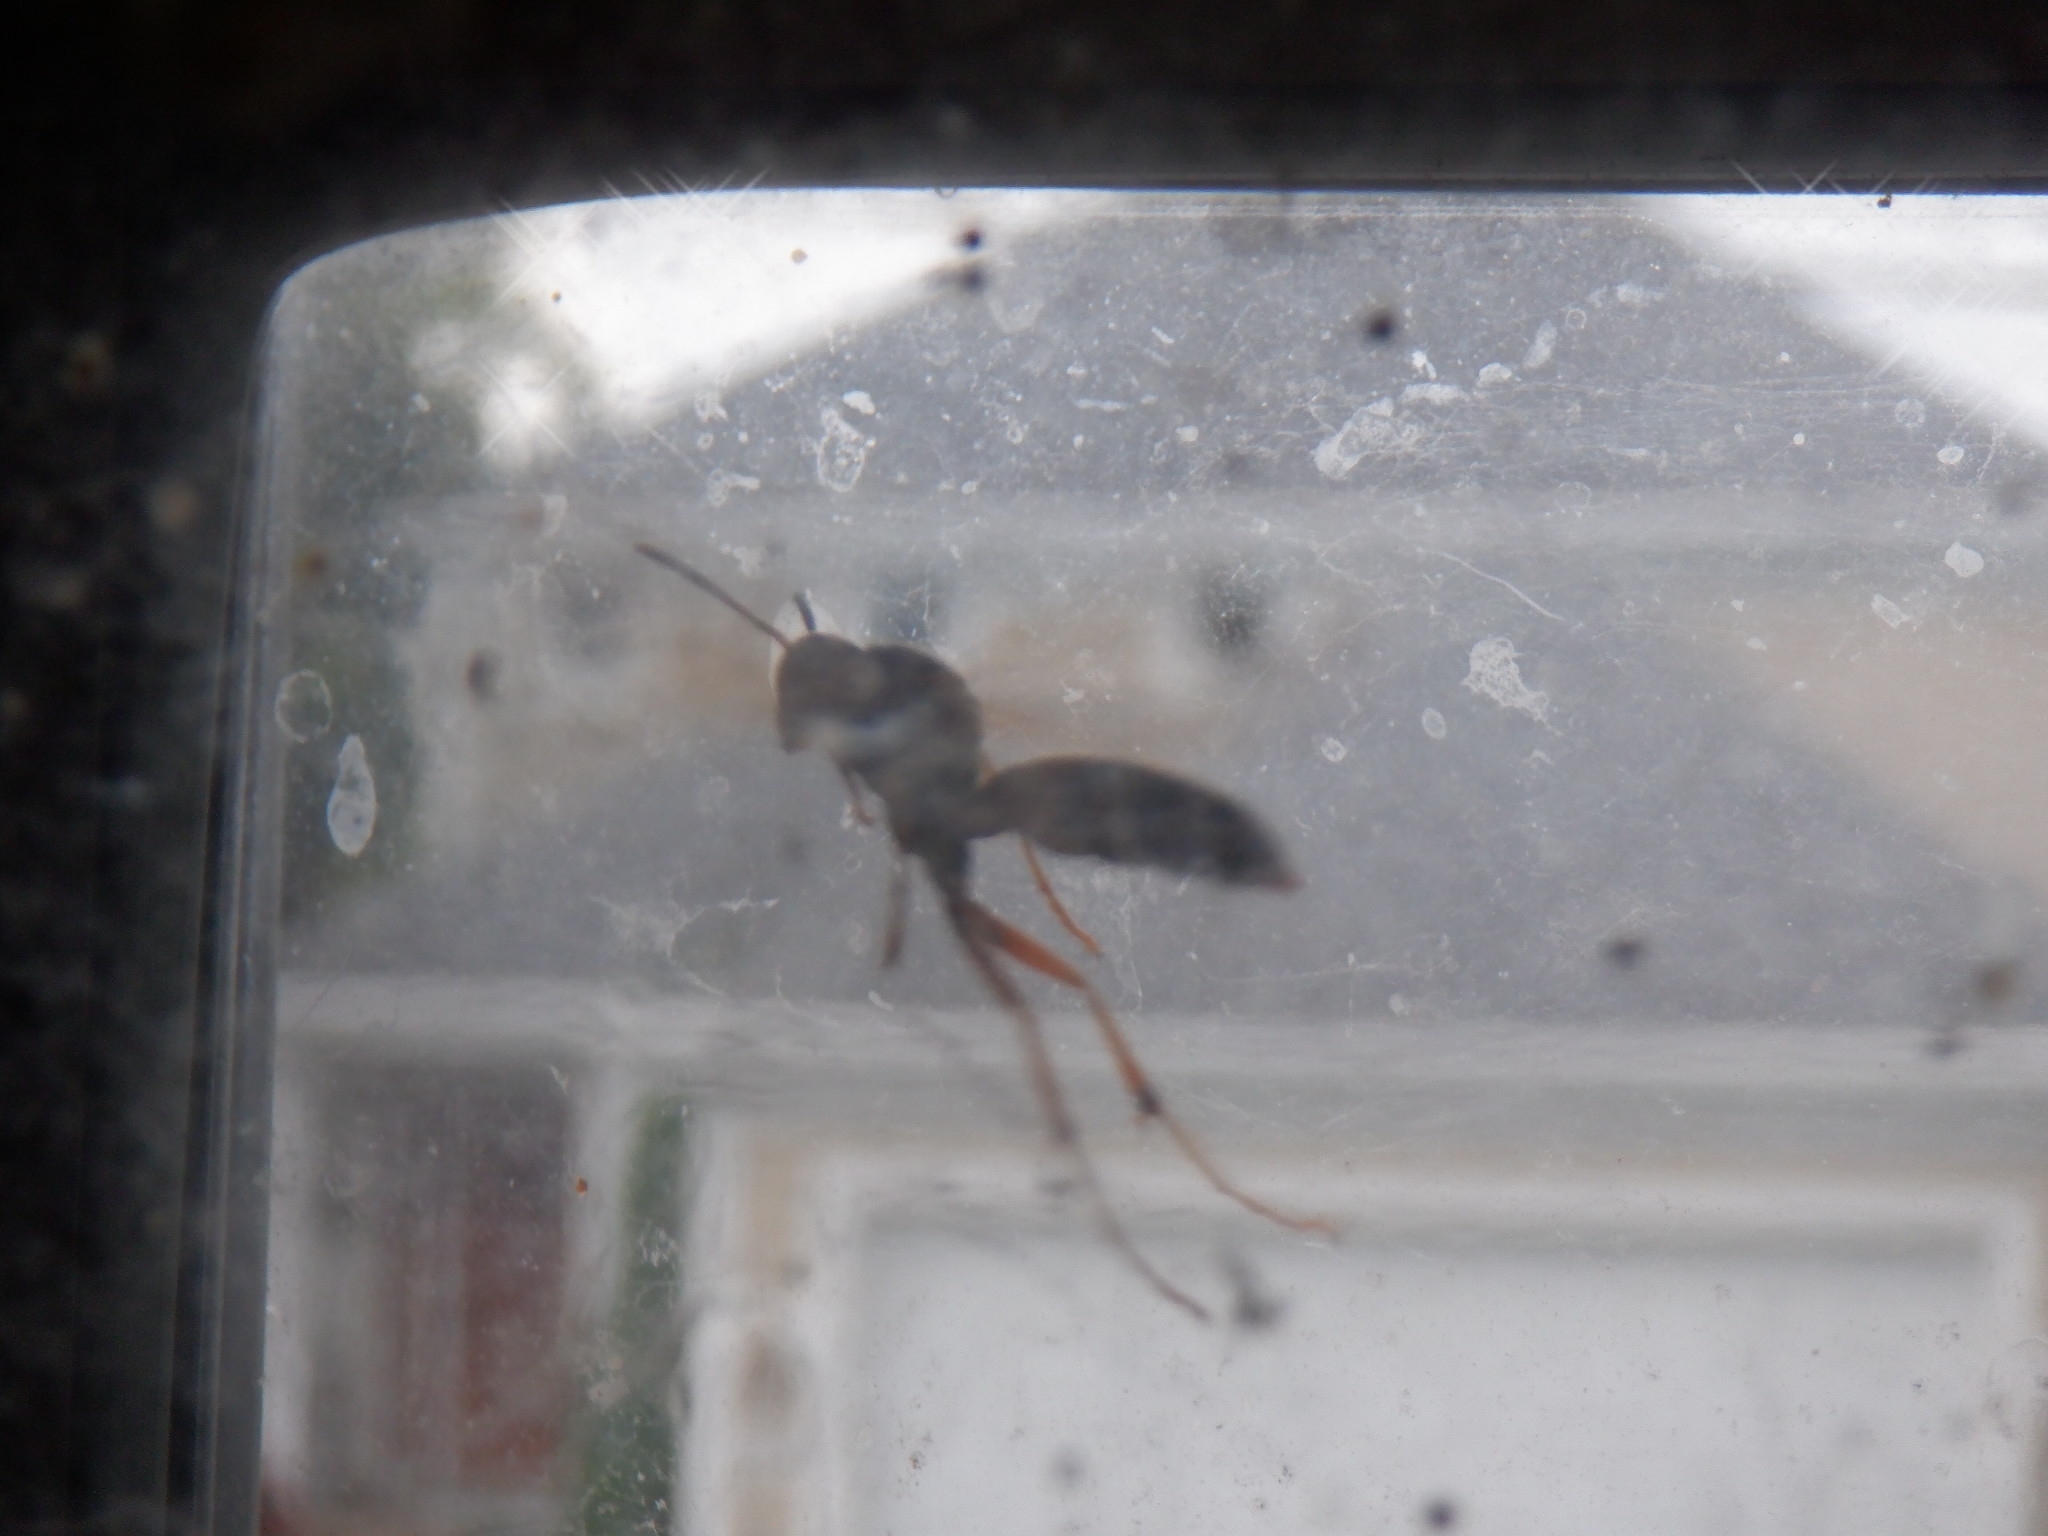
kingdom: Animalia
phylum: Arthropoda
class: Insecta
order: Hymenoptera
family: Eumenidae
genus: Polistes
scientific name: Polistes fuscatus
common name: Dark paper wasp
